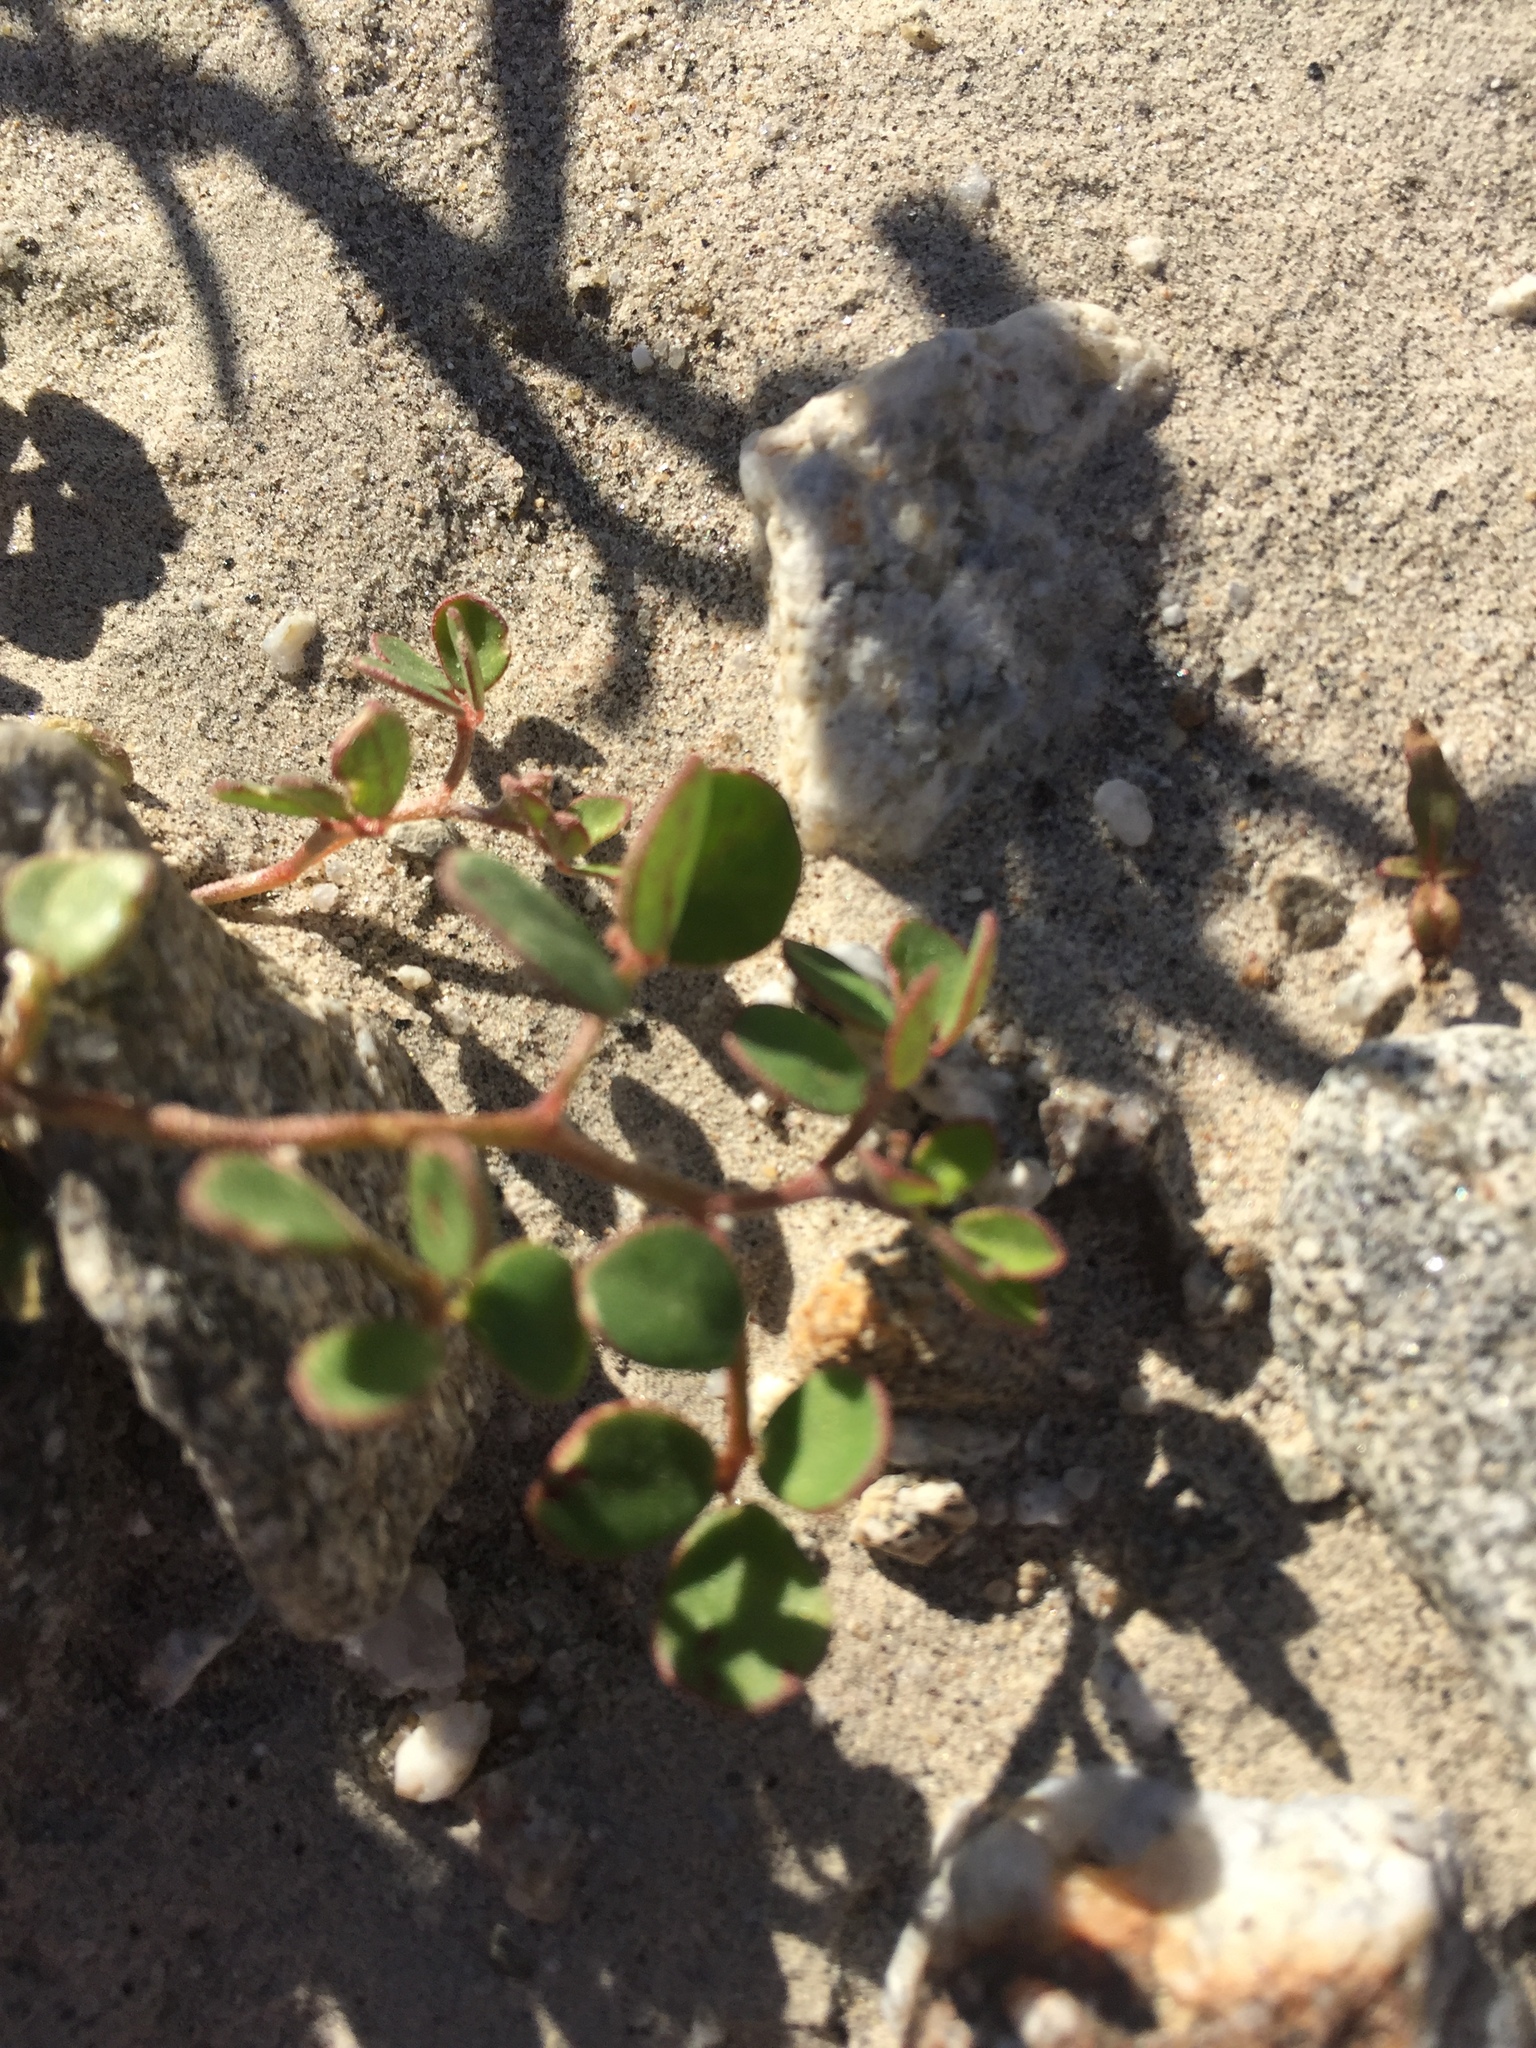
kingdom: Plantae
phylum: Tracheophyta
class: Magnoliopsida
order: Fabales
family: Fabaceae
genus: Acmispon
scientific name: Acmispon maritimus
